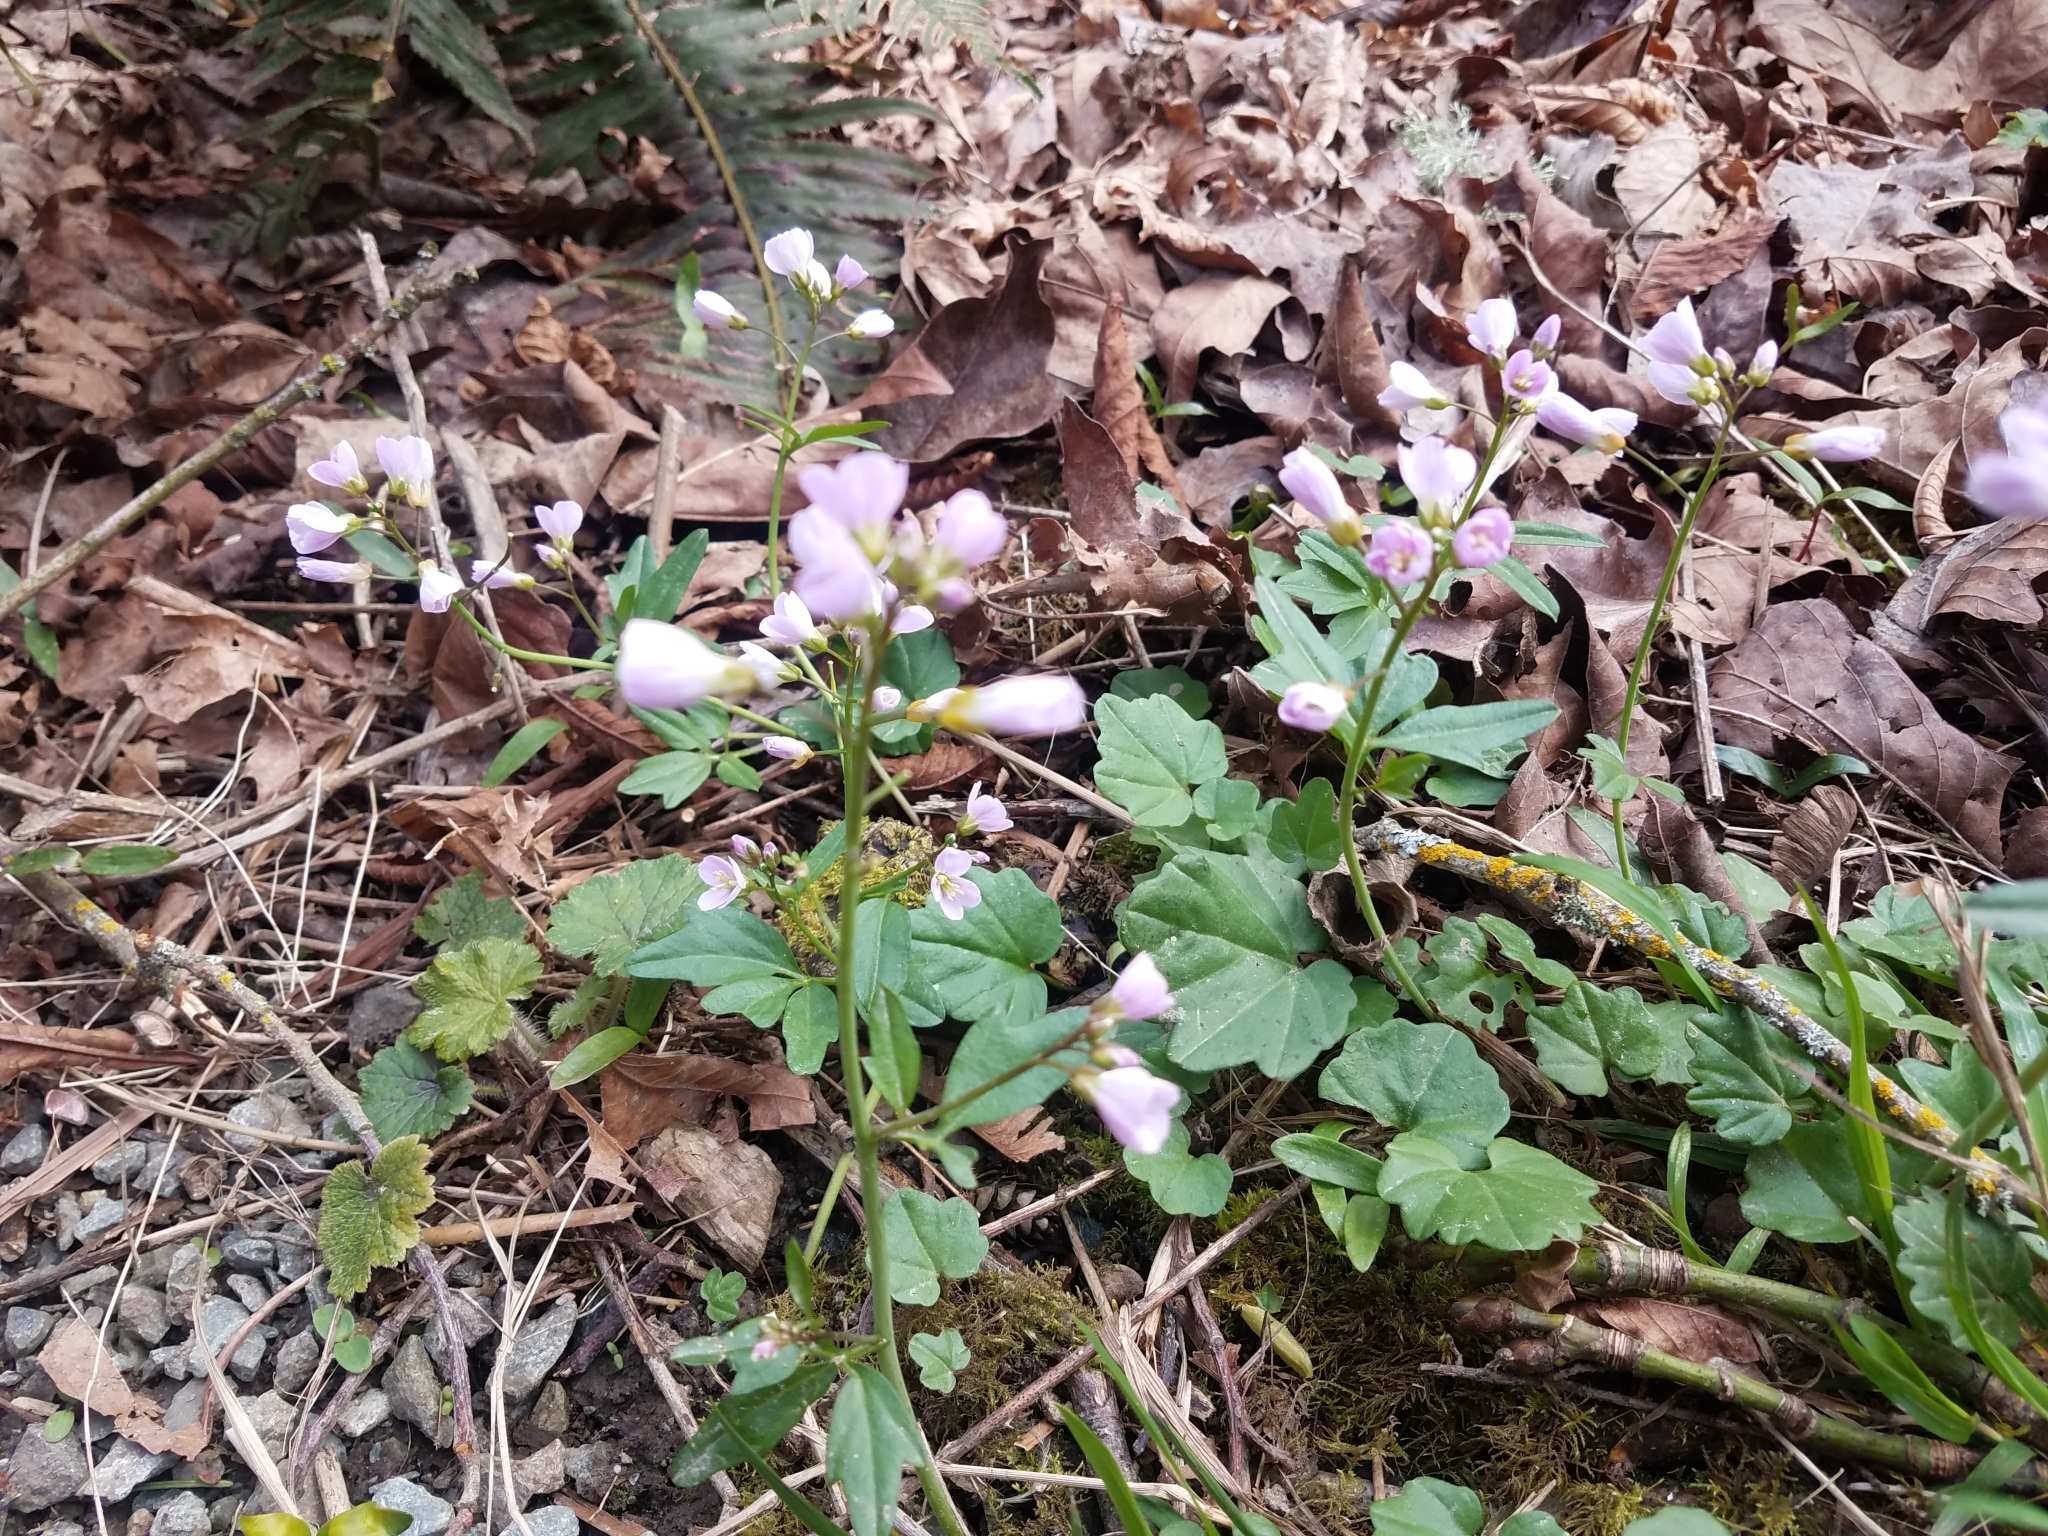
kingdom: Plantae
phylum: Tracheophyta
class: Magnoliopsida
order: Brassicales
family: Brassicaceae
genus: Cardamine
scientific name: Cardamine nuttallii
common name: Nuttall's toothwort
